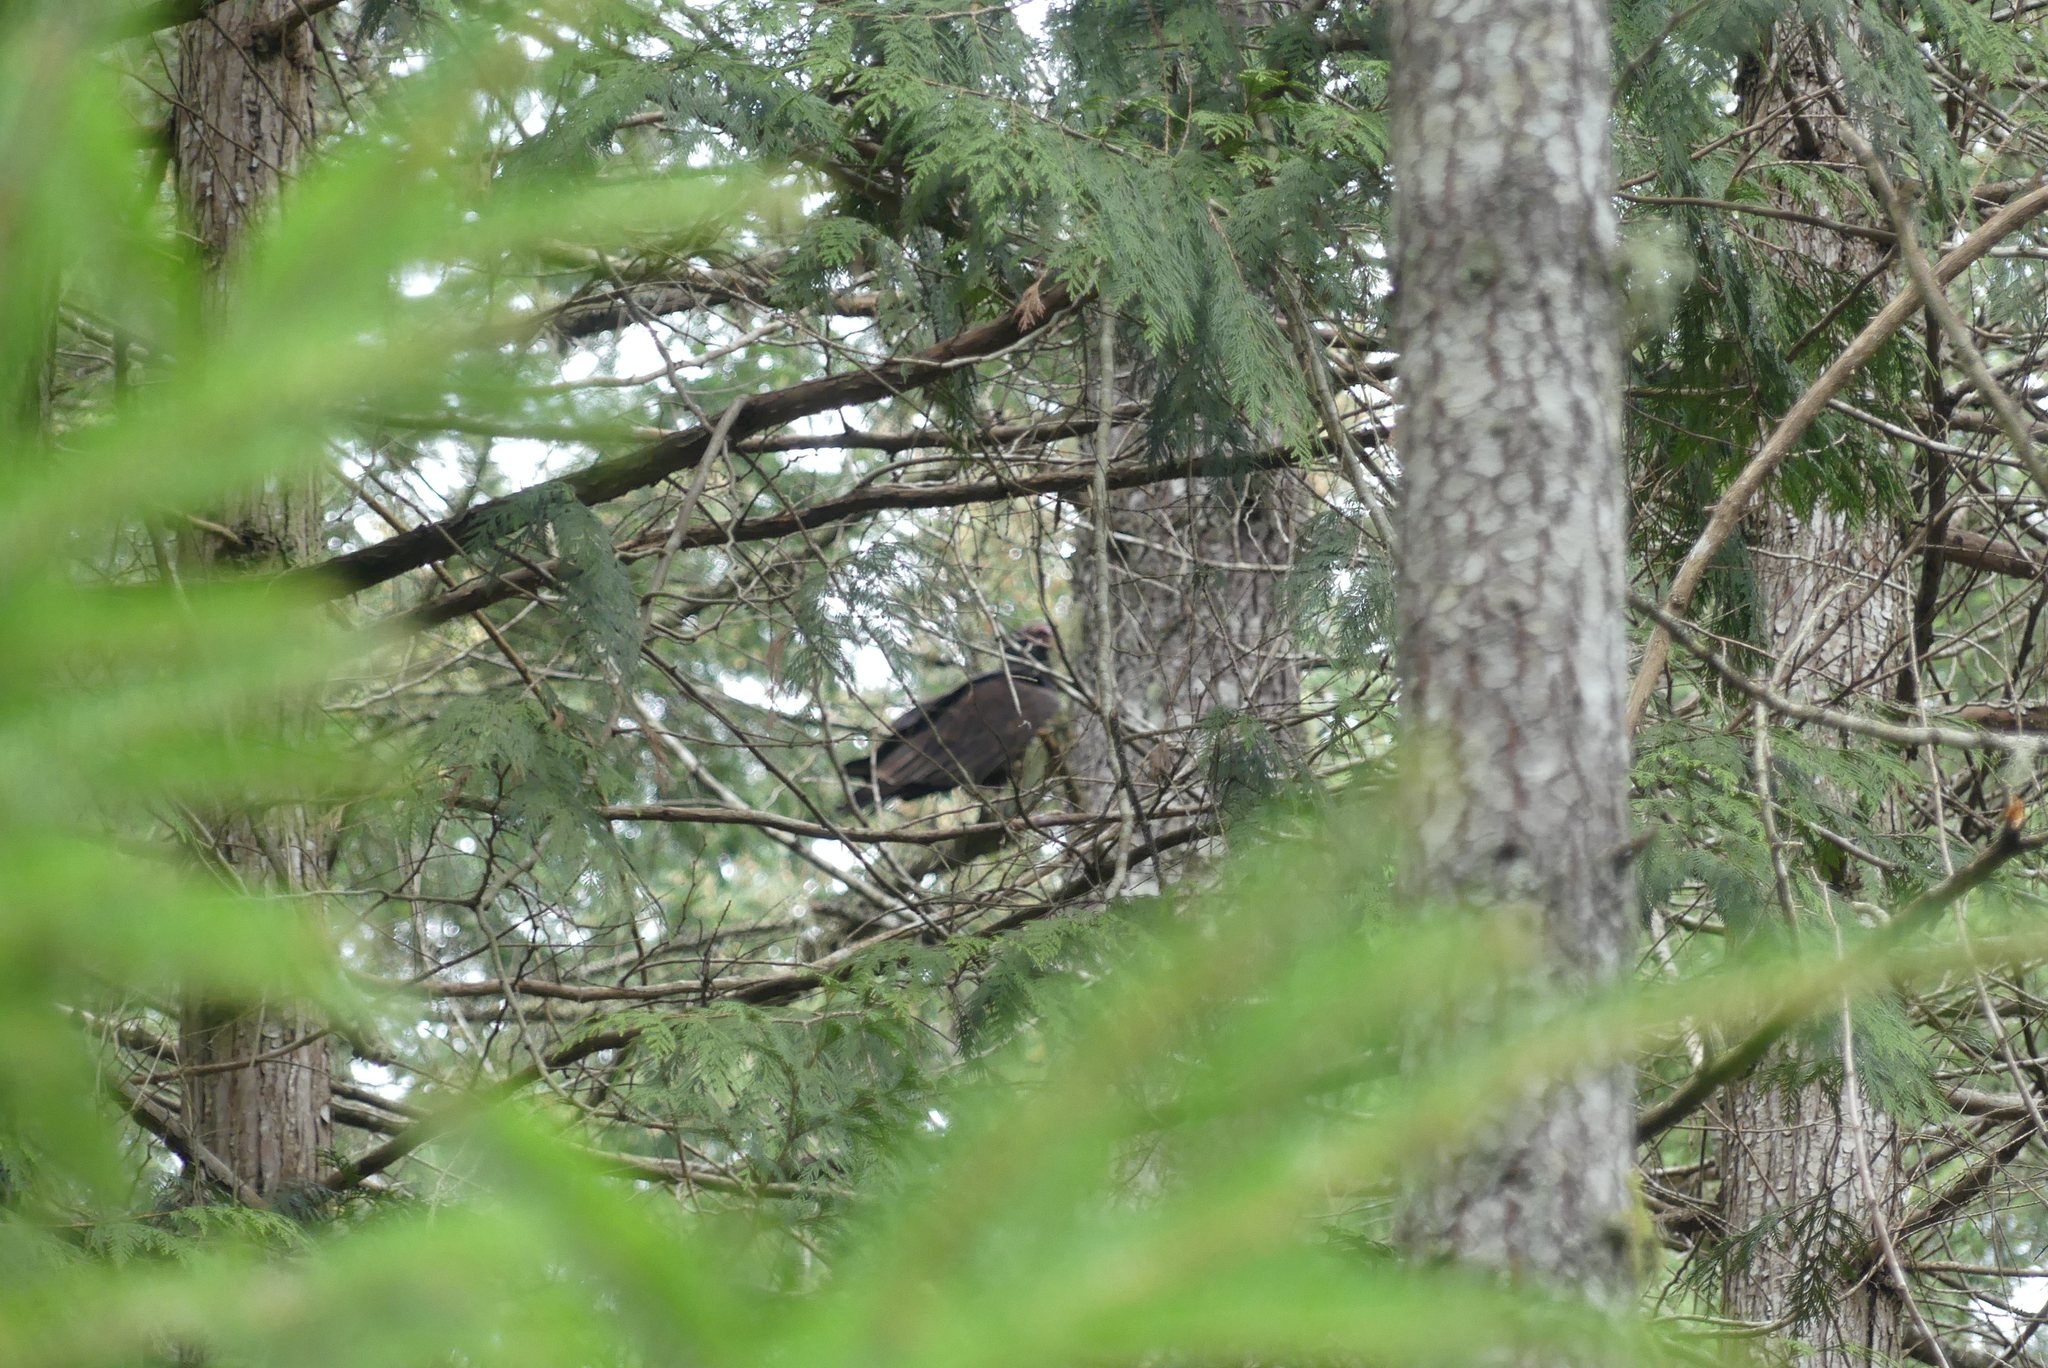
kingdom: Animalia
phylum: Chordata
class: Aves
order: Accipitriformes
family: Cathartidae
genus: Cathartes
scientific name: Cathartes aura
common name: Turkey vulture
